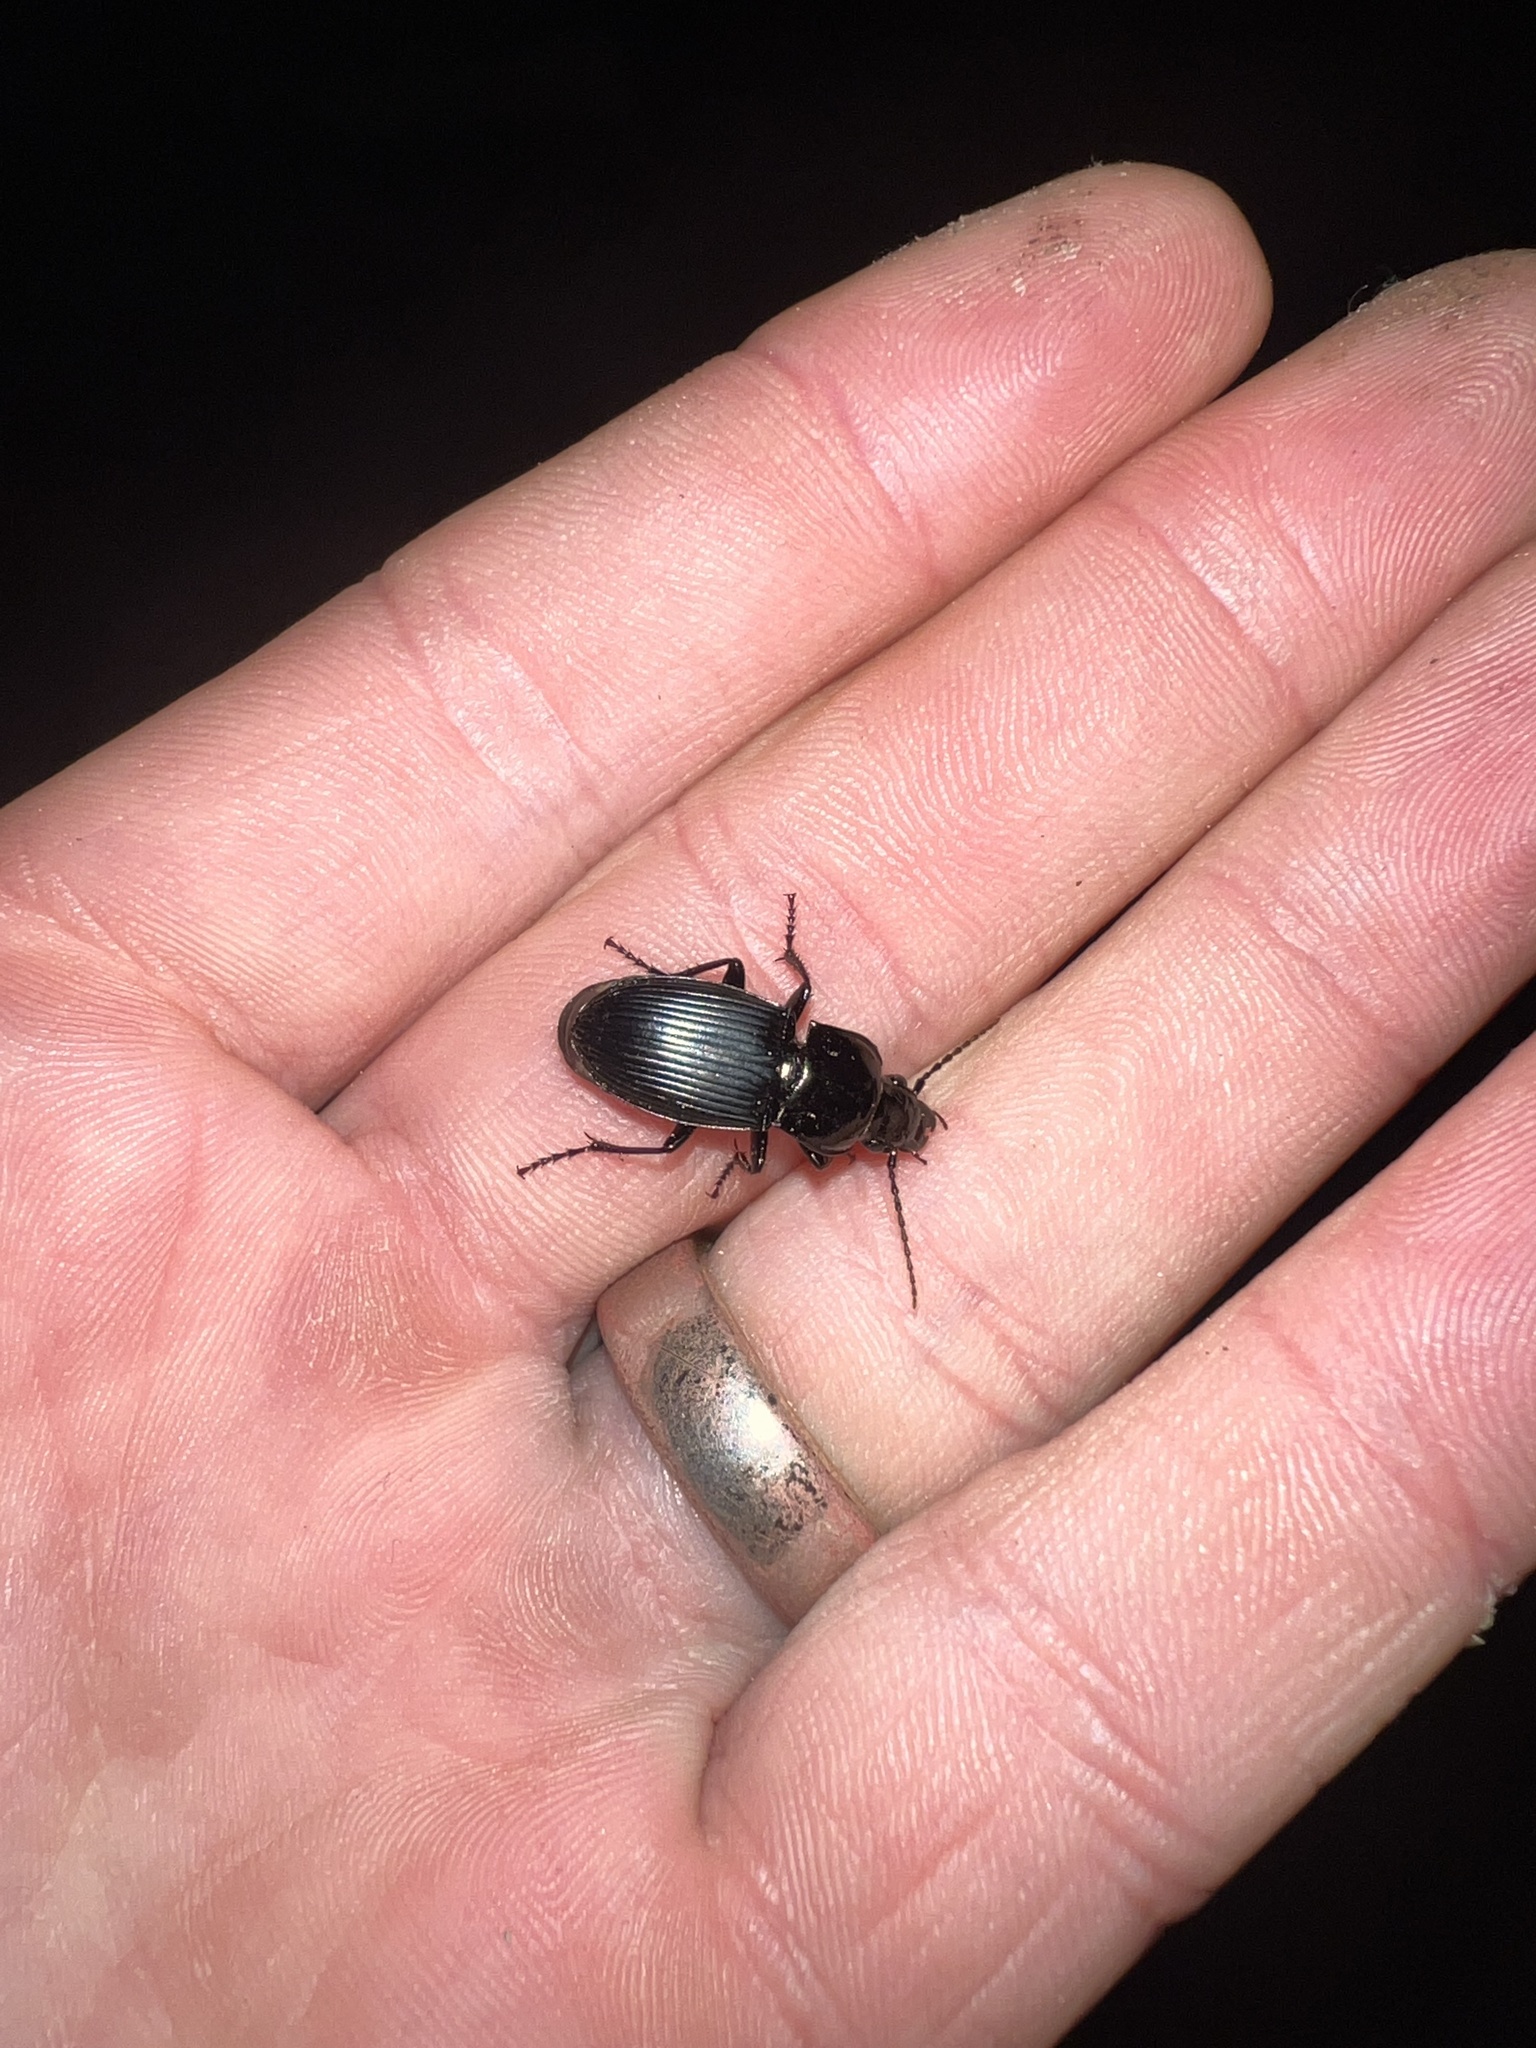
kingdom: Animalia
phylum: Arthropoda
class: Insecta
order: Coleoptera
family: Carabidae
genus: Abax
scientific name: Abax parallelus
